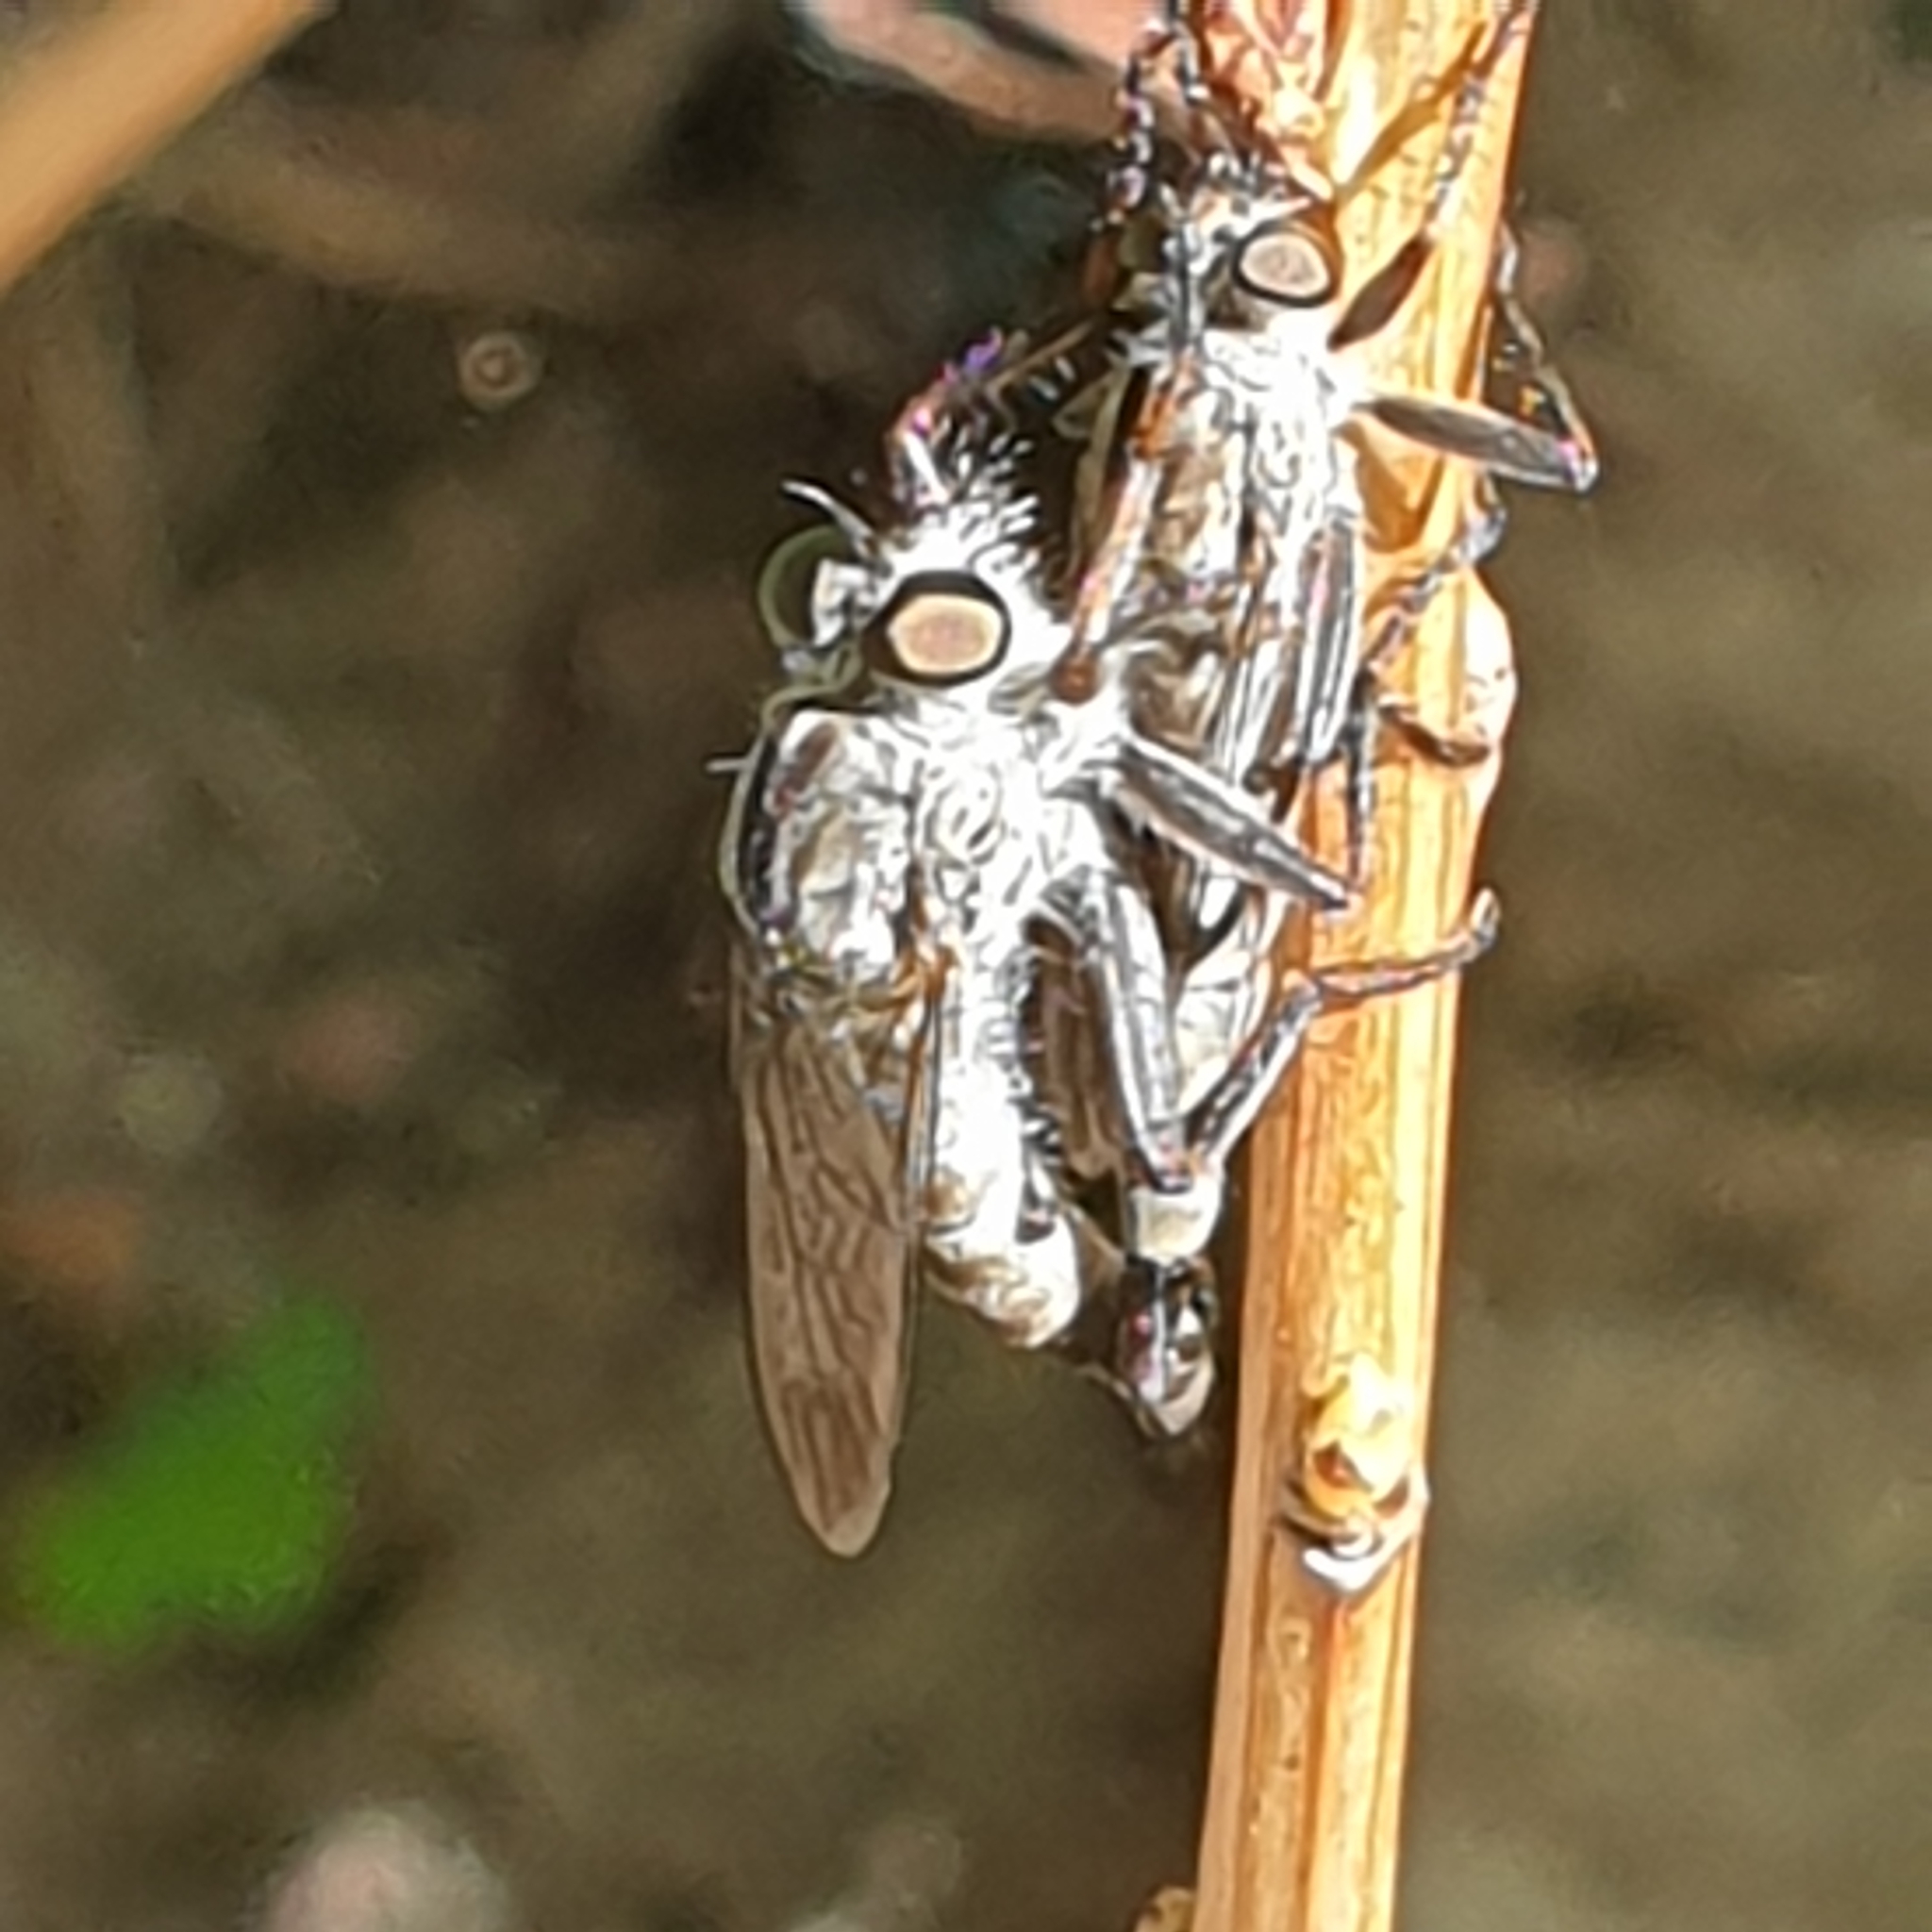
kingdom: Animalia
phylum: Arthropoda
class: Insecta
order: Diptera
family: Asilidae
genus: Machimus
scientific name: Machimus atricapillus
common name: Kite-tailed robberfly
